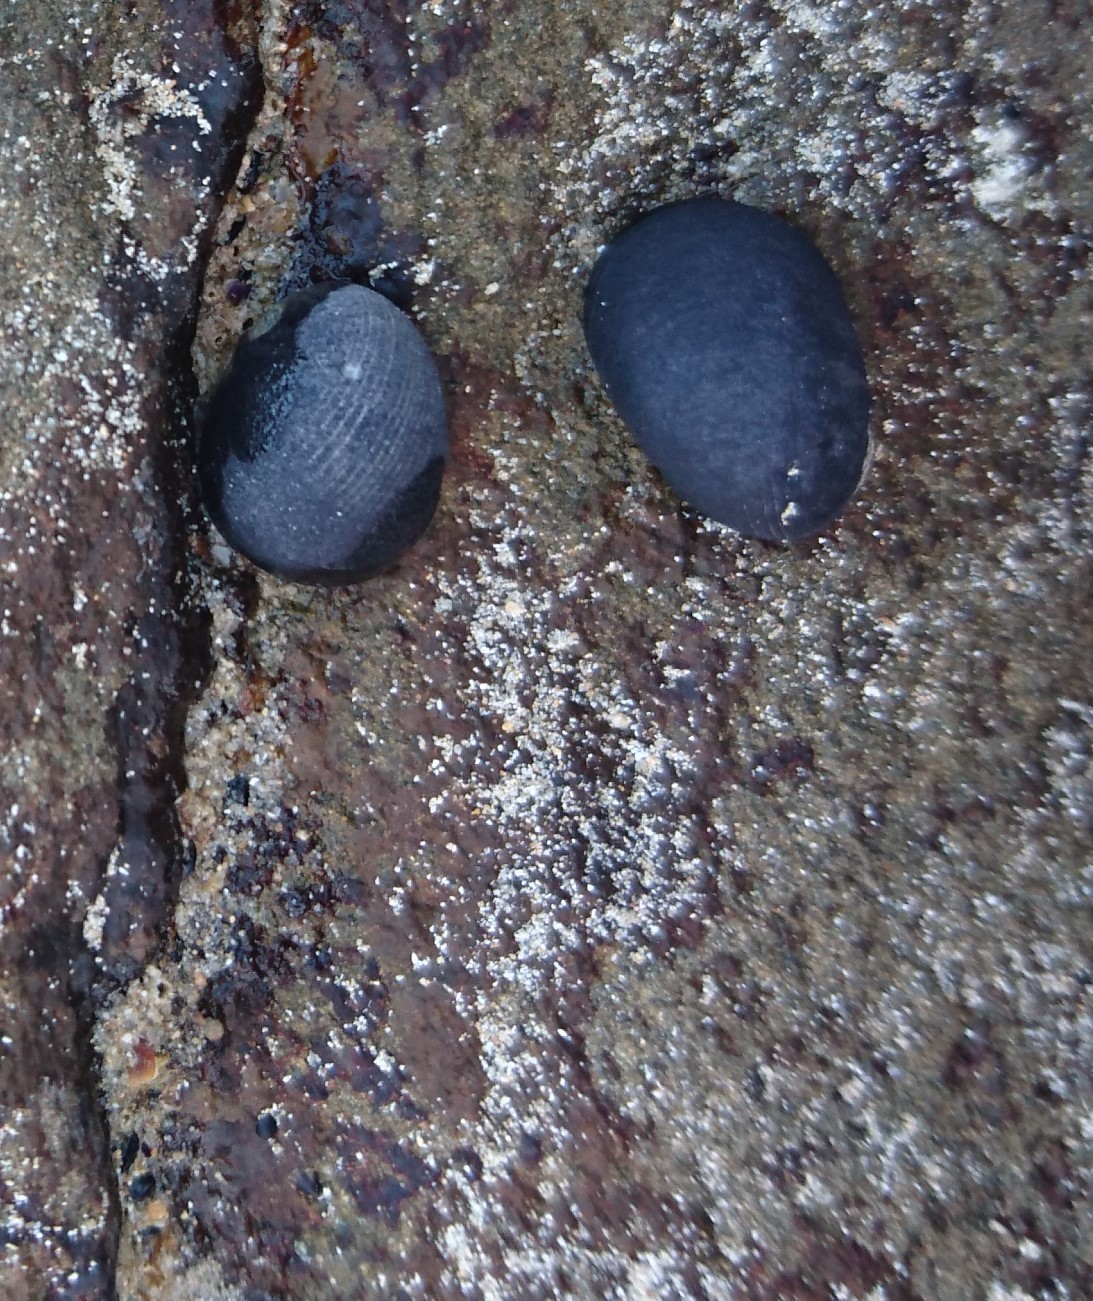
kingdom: Animalia
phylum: Mollusca
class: Gastropoda
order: Cycloneritida
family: Neritidae
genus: Nerita
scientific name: Nerita atramentosa
